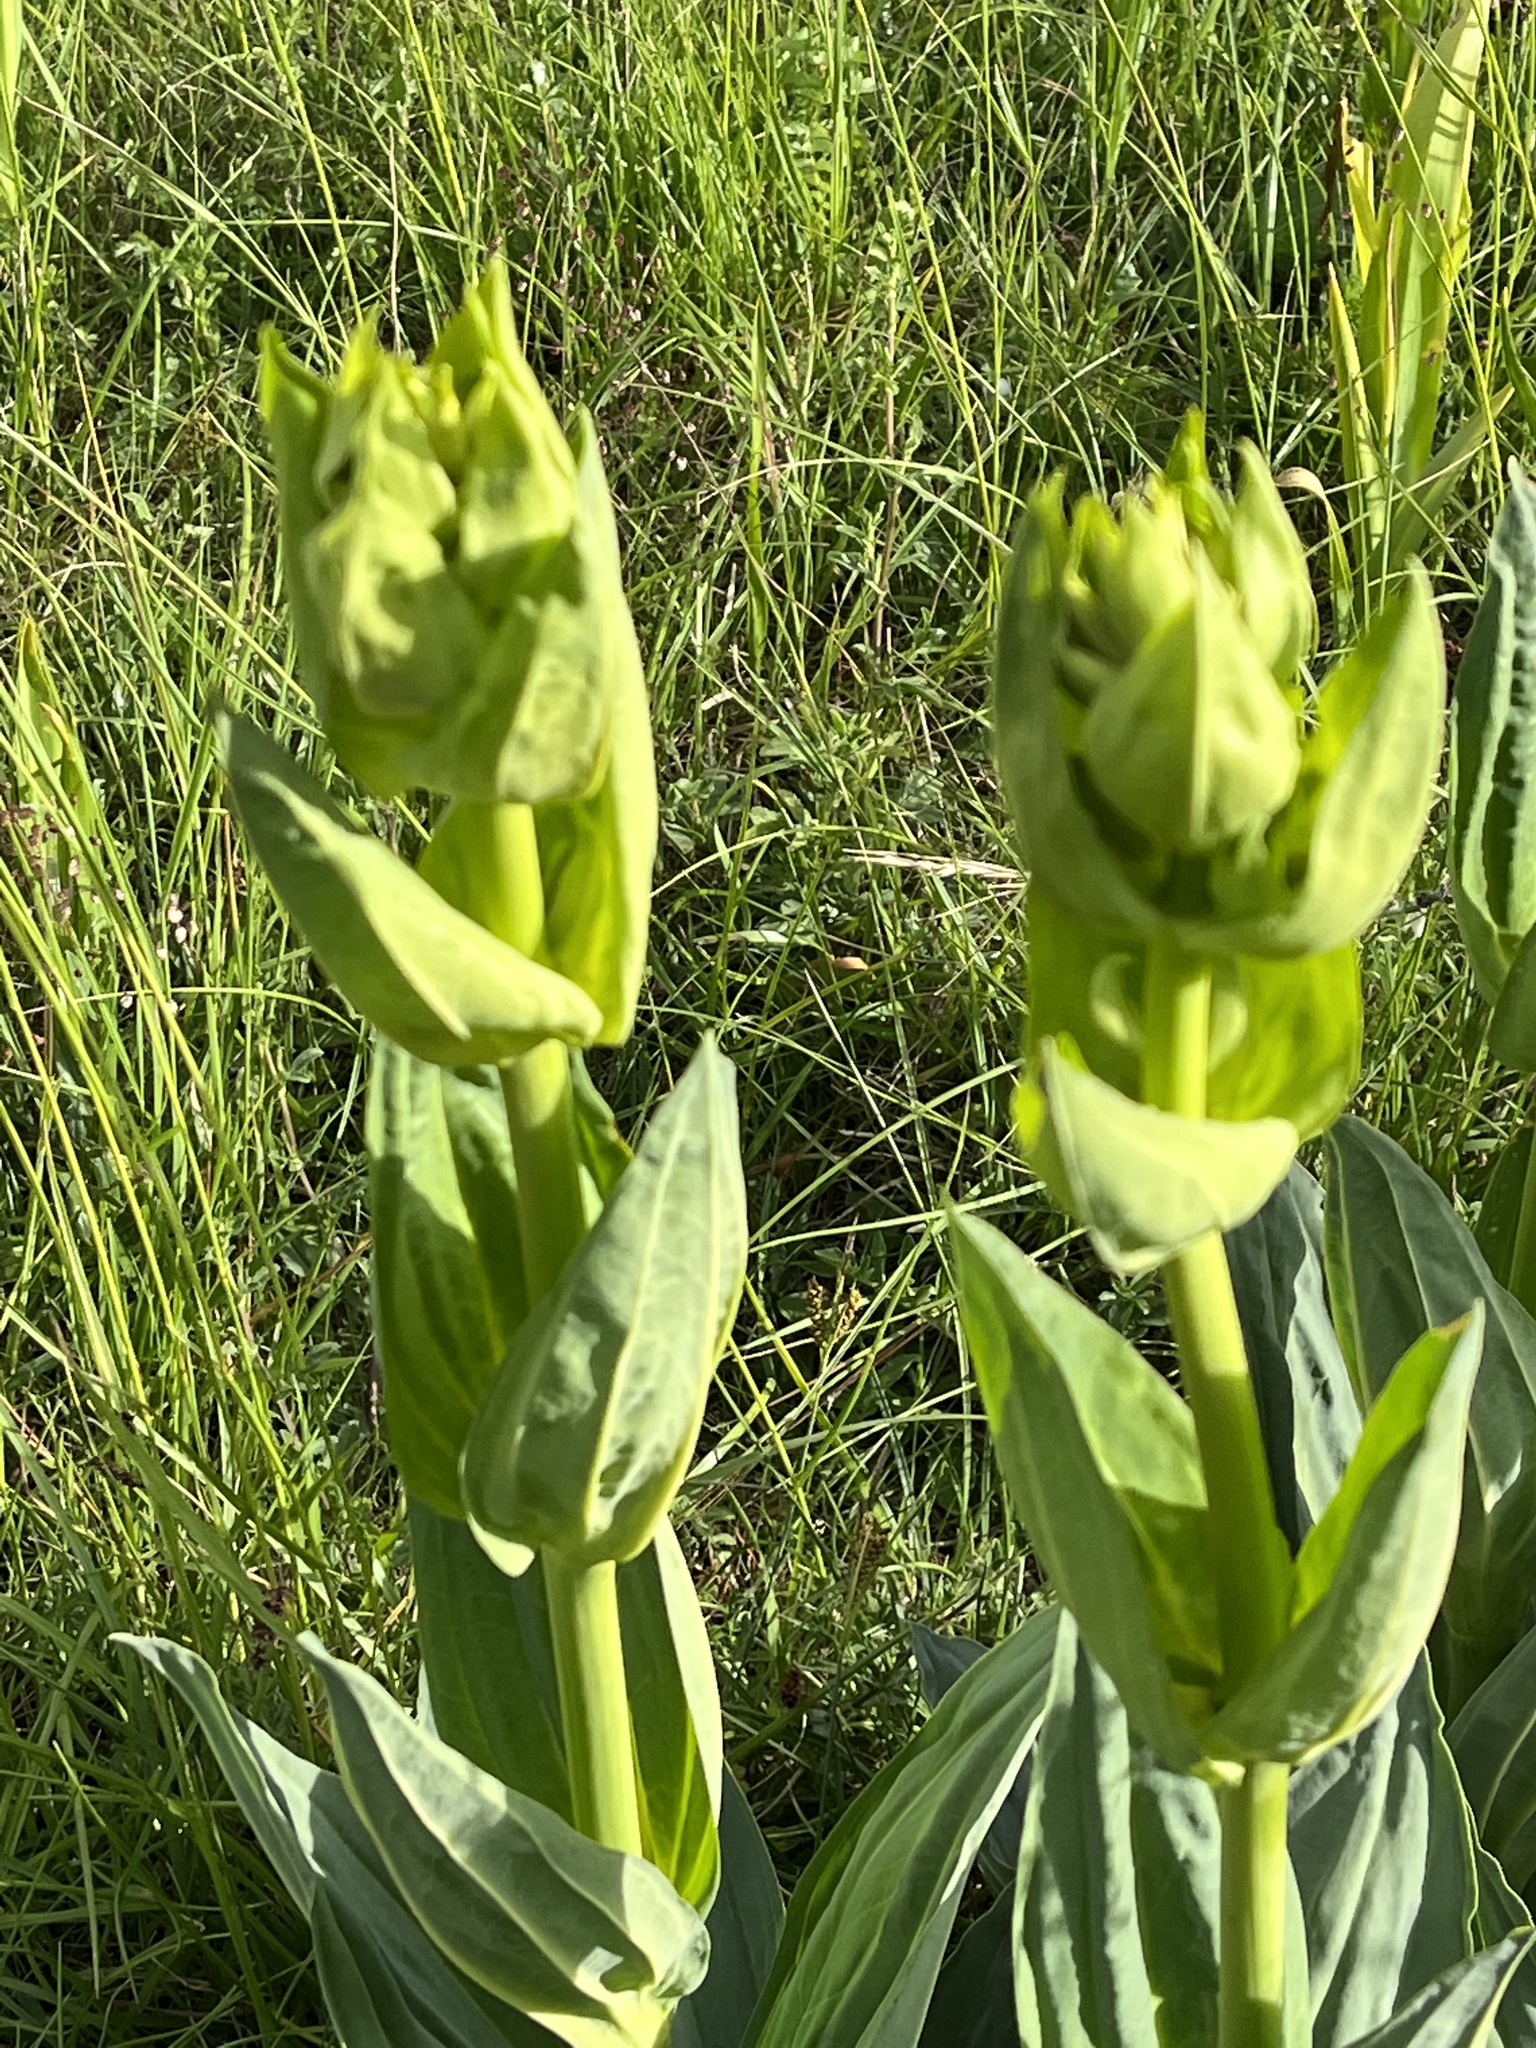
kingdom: Plantae
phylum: Tracheophyta
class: Magnoliopsida
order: Gentianales
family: Gentianaceae
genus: Gentiana
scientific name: Gentiana lutea
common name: Great yellow gentian
